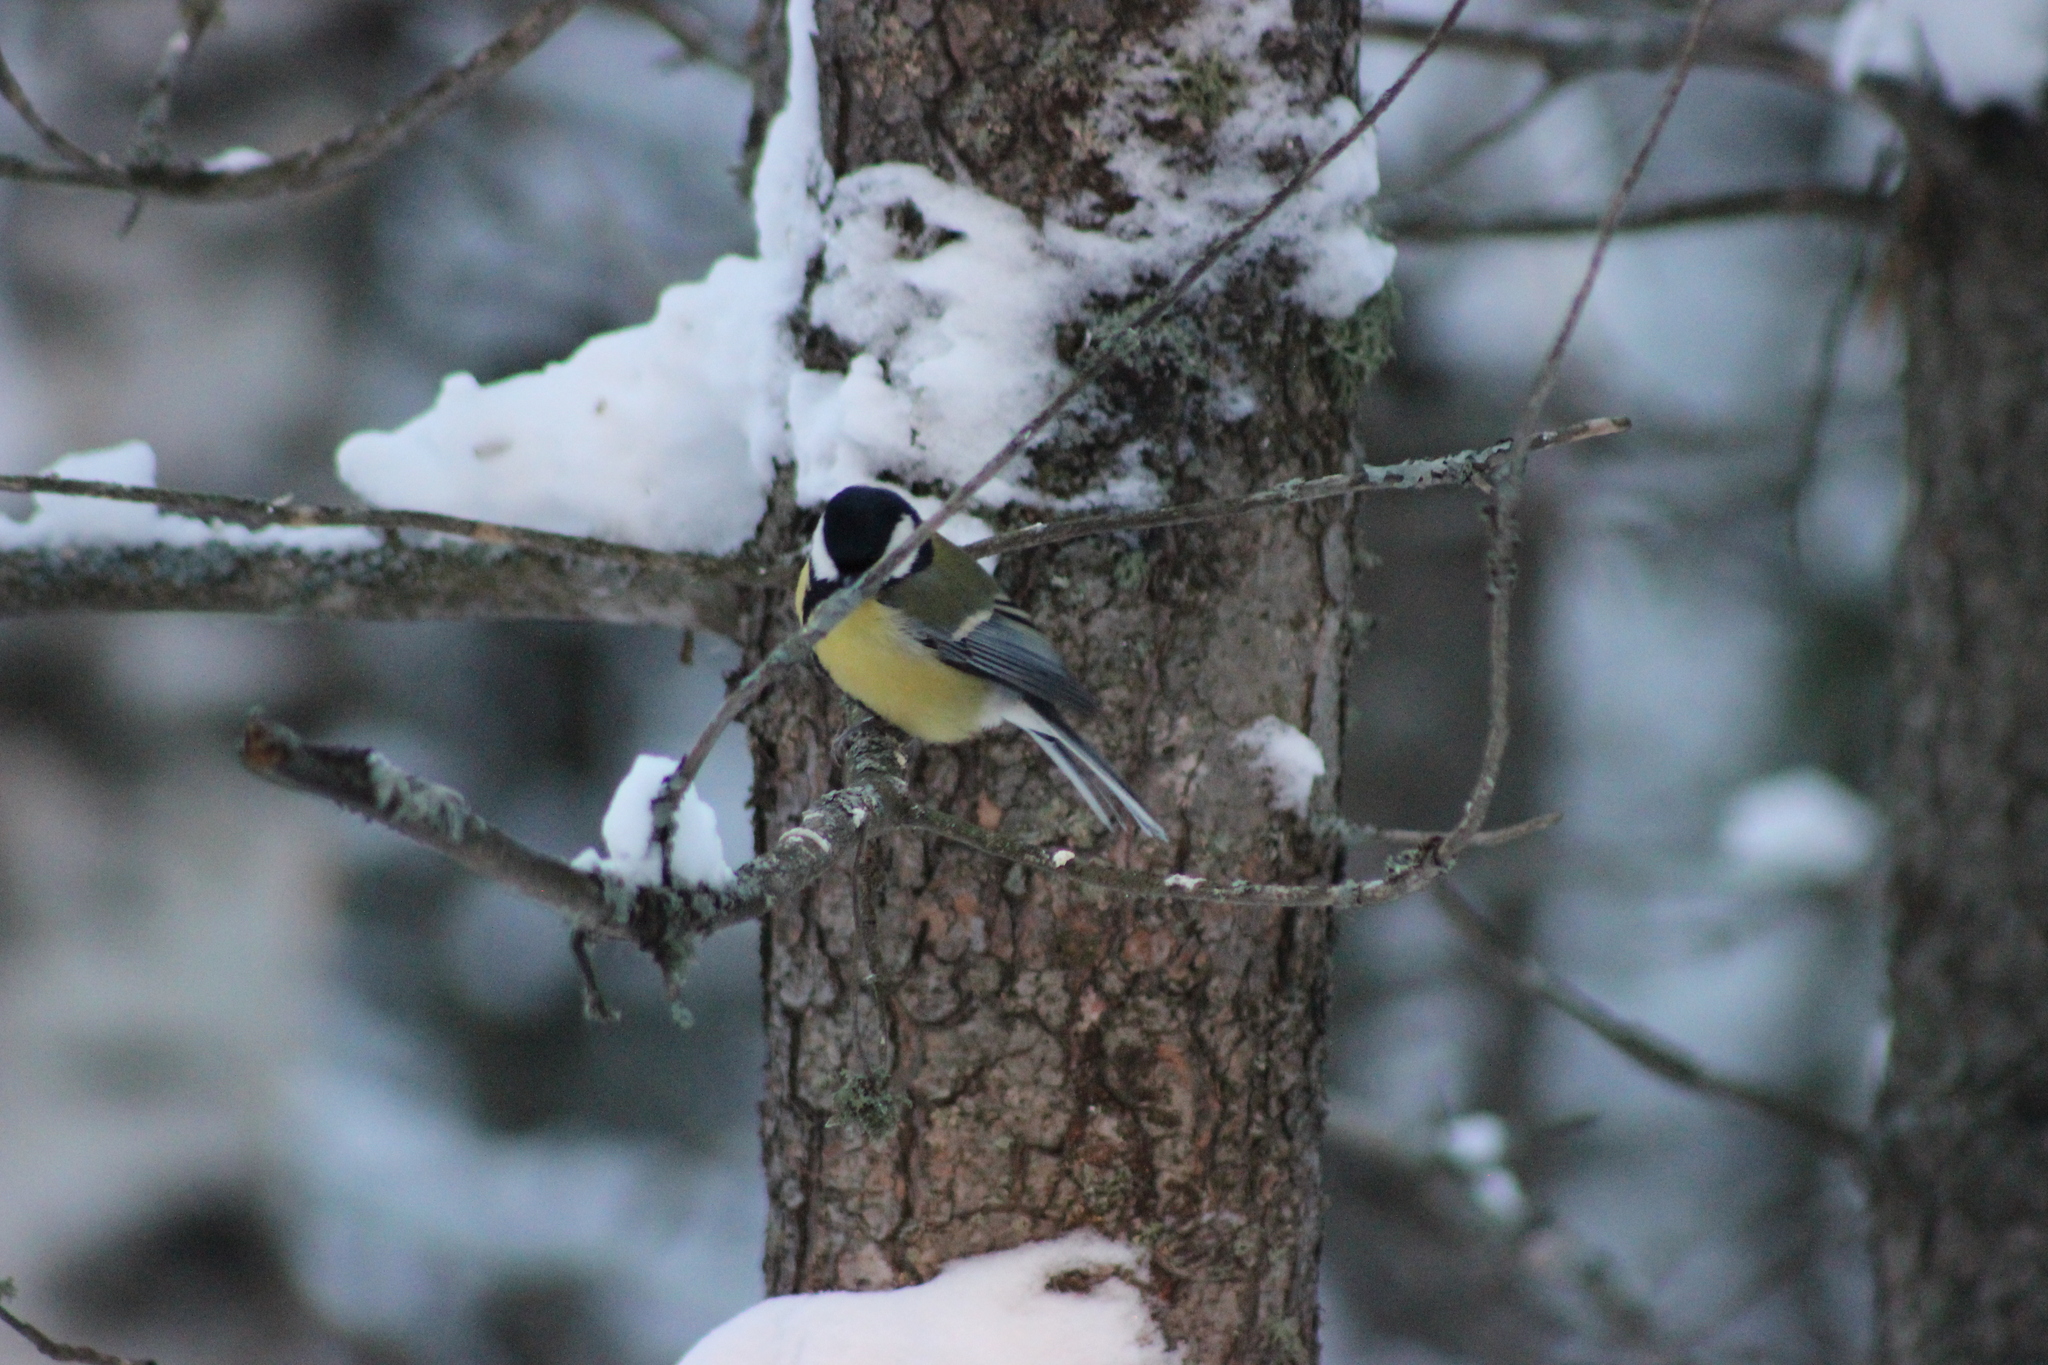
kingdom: Animalia
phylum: Chordata
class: Aves
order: Passeriformes
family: Paridae
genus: Parus
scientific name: Parus major
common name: Great tit
